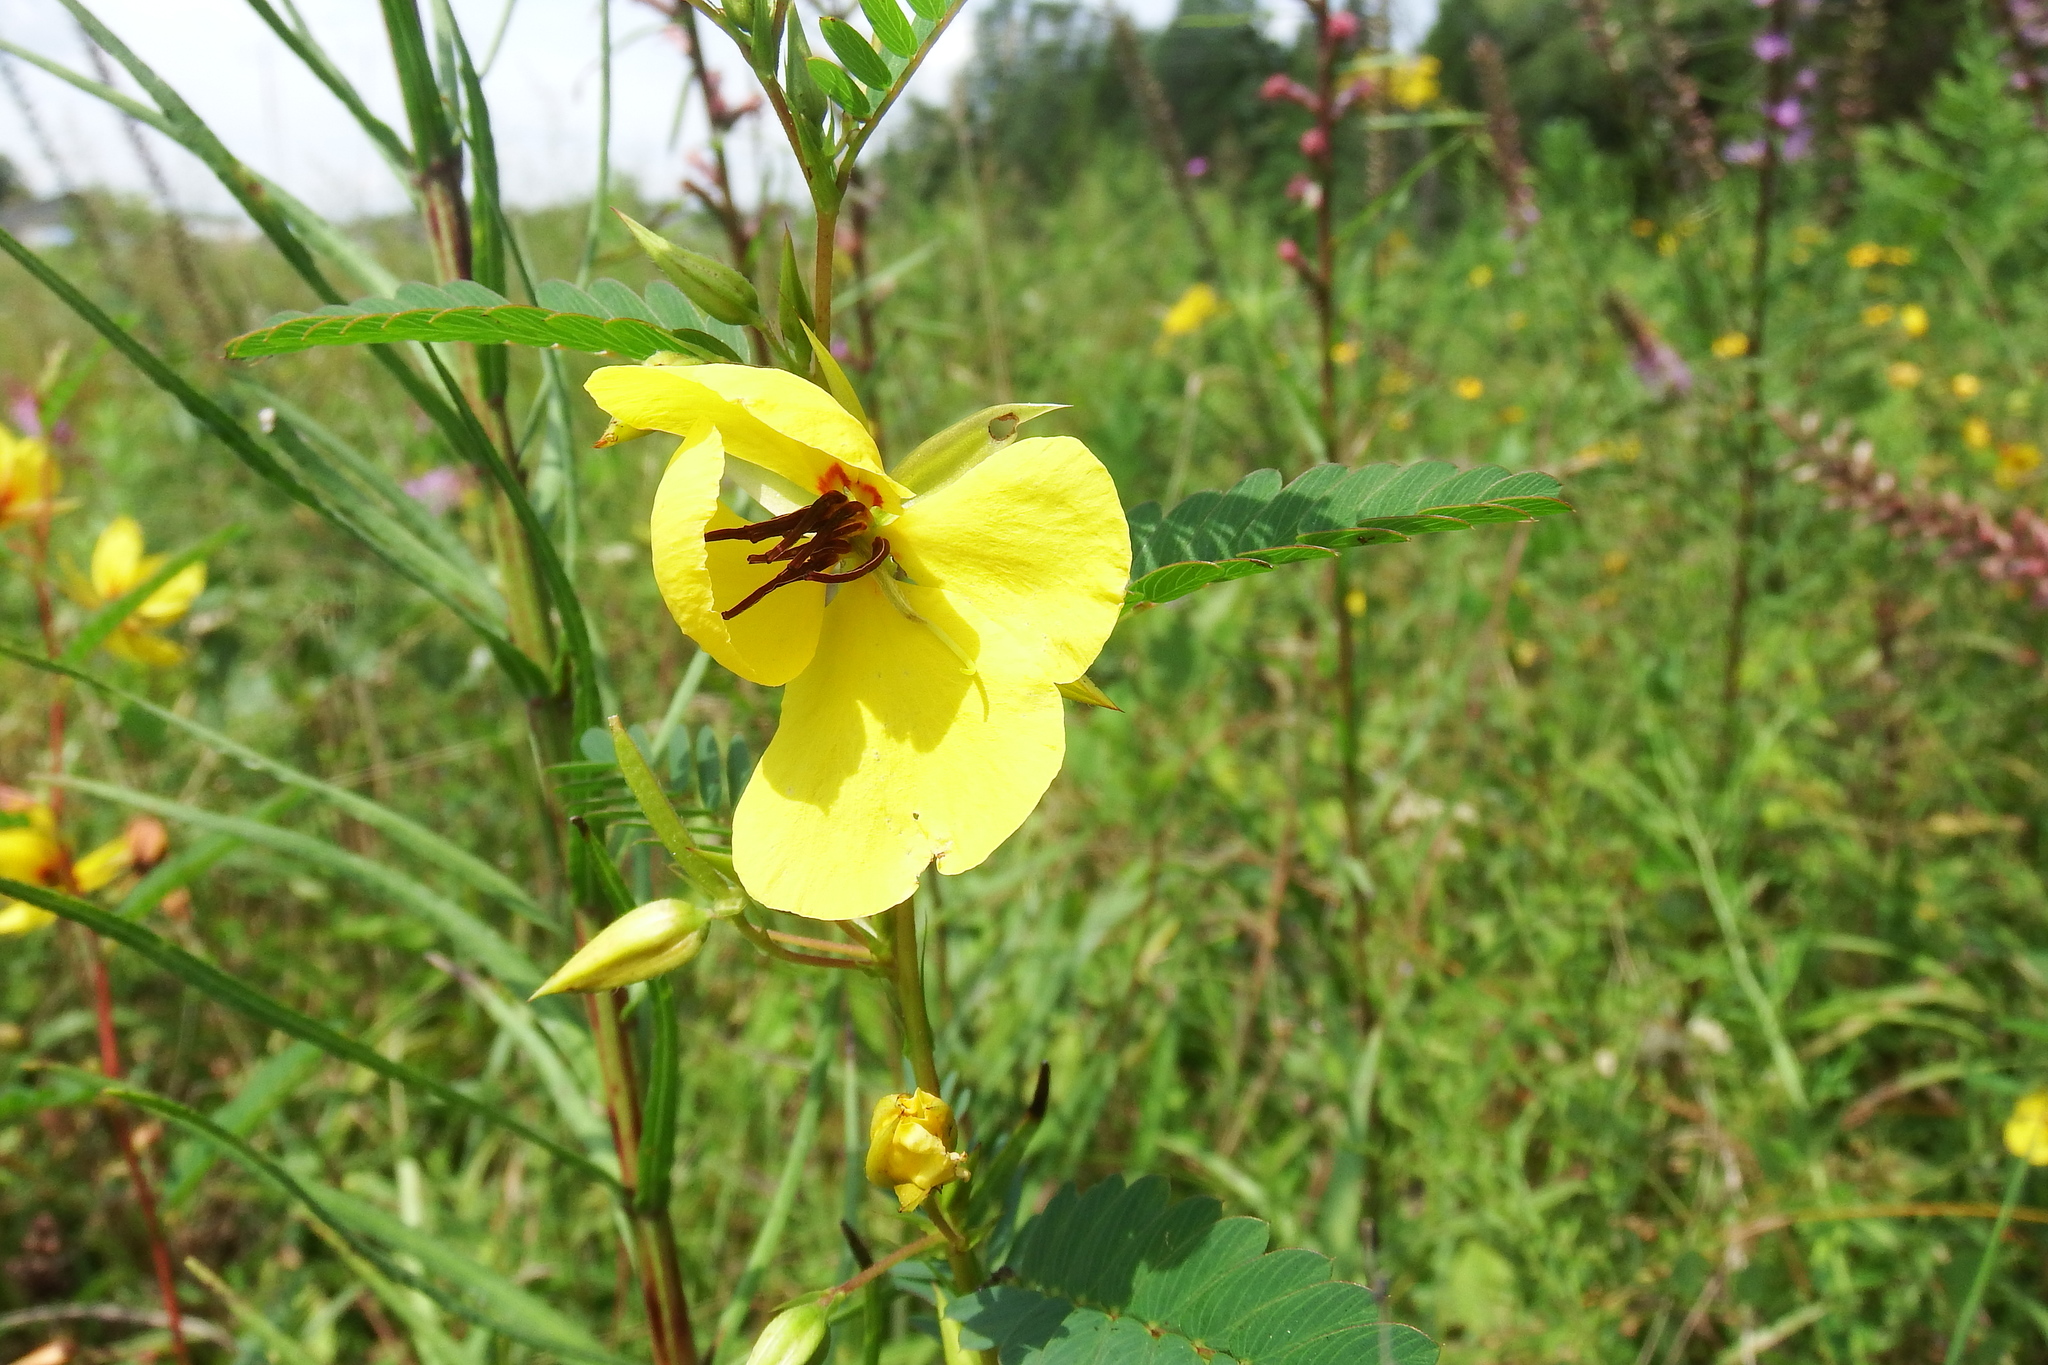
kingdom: Plantae
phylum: Tracheophyta
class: Magnoliopsida
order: Fabales
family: Fabaceae
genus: Chamaecrista
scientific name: Chamaecrista fasciculata
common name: Golden cassia
